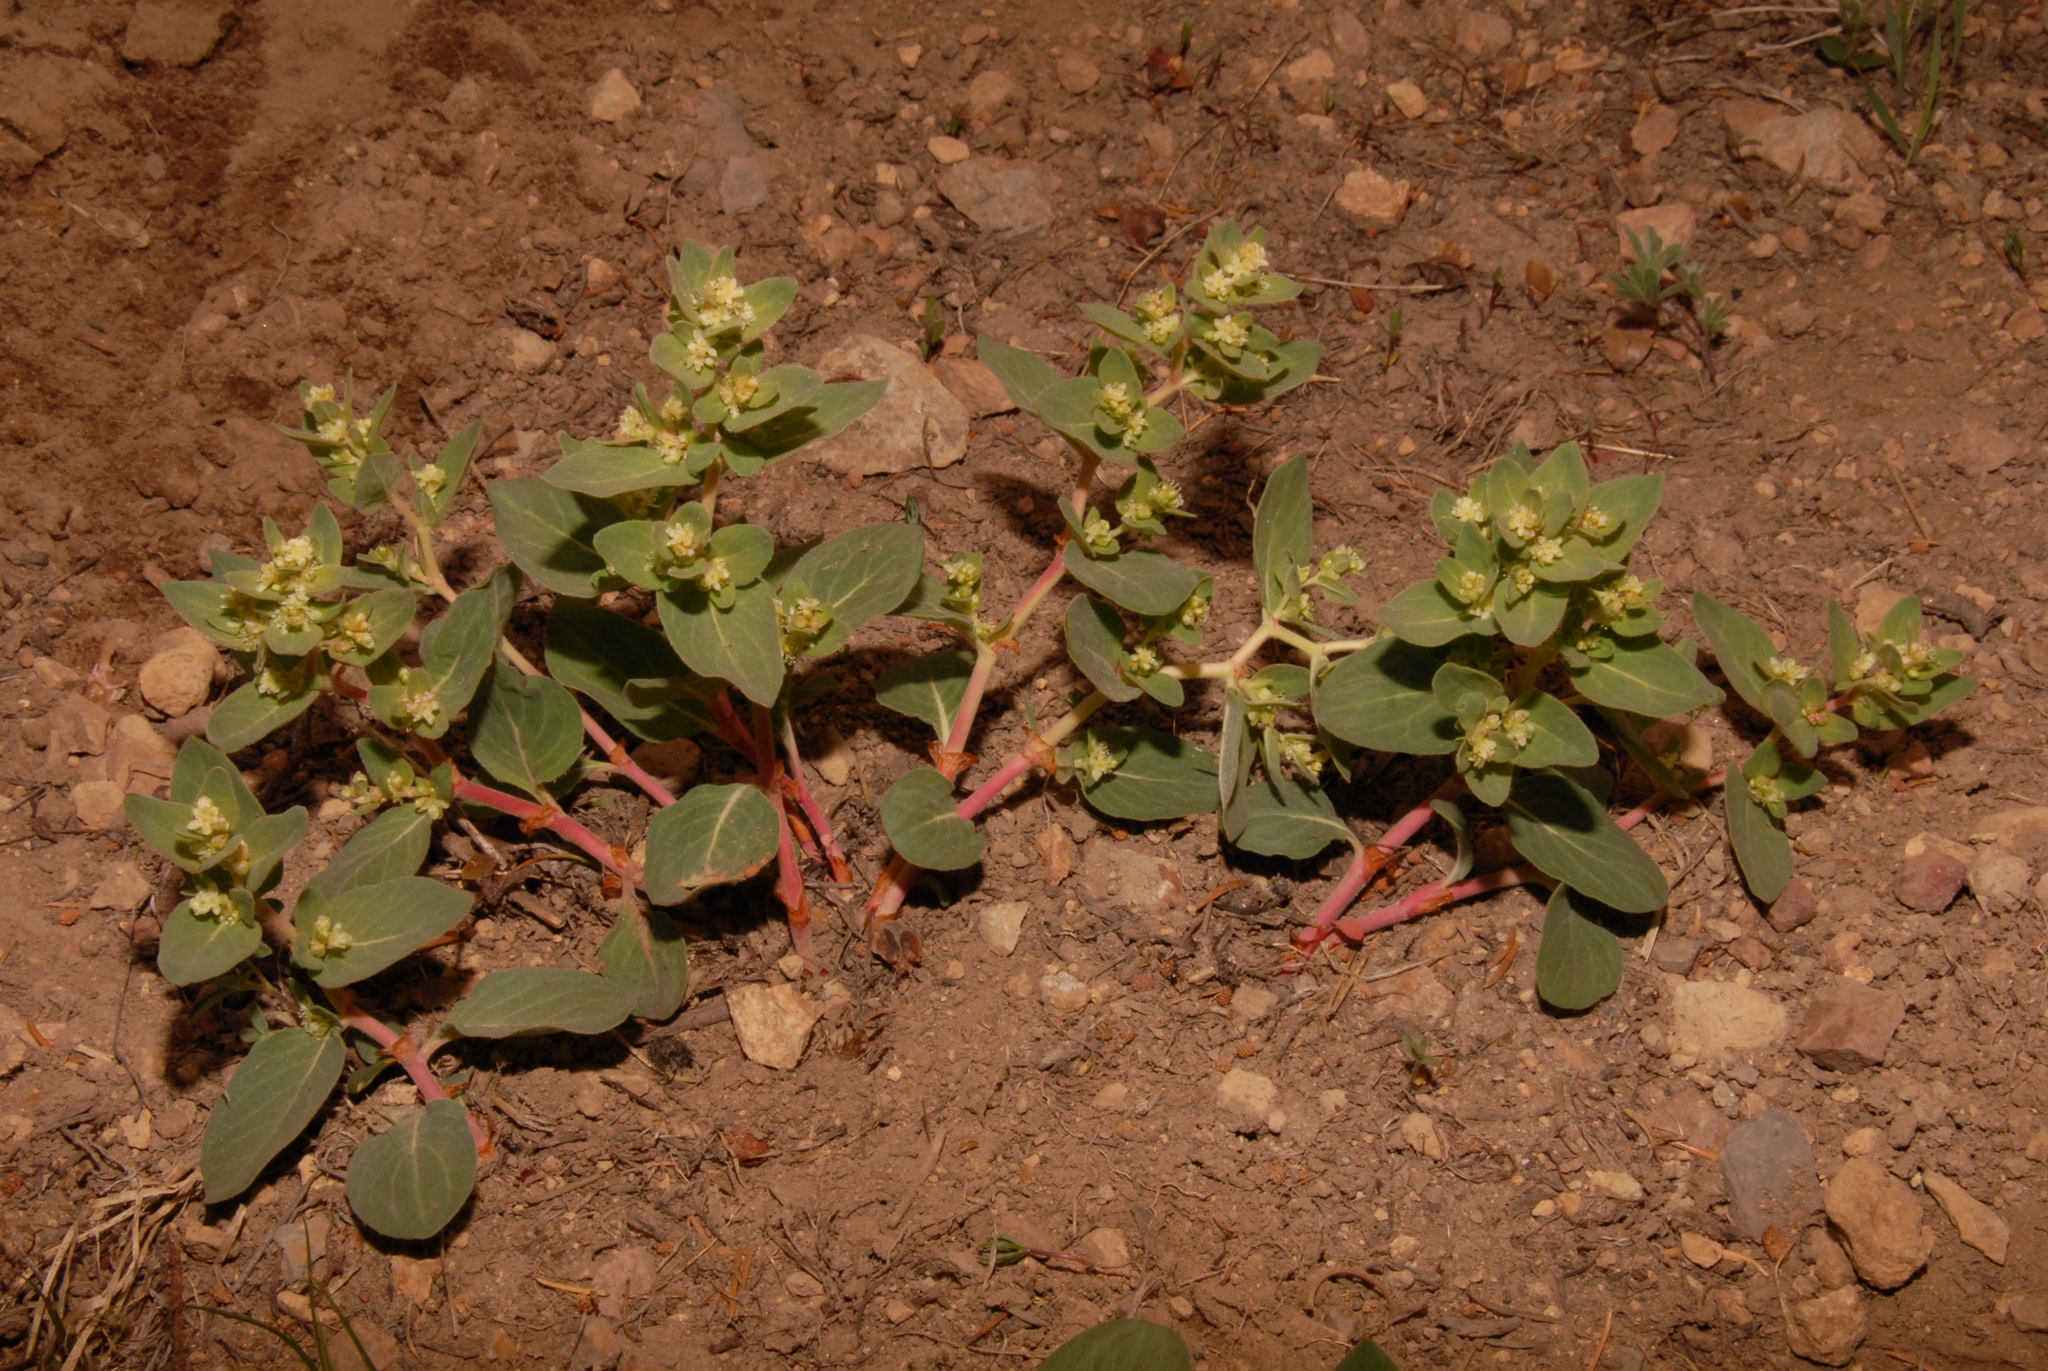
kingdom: Plantae
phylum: Tracheophyta
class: Magnoliopsida
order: Caryophyllales
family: Polygonaceae
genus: Koenigia
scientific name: Koenigia davisiae
